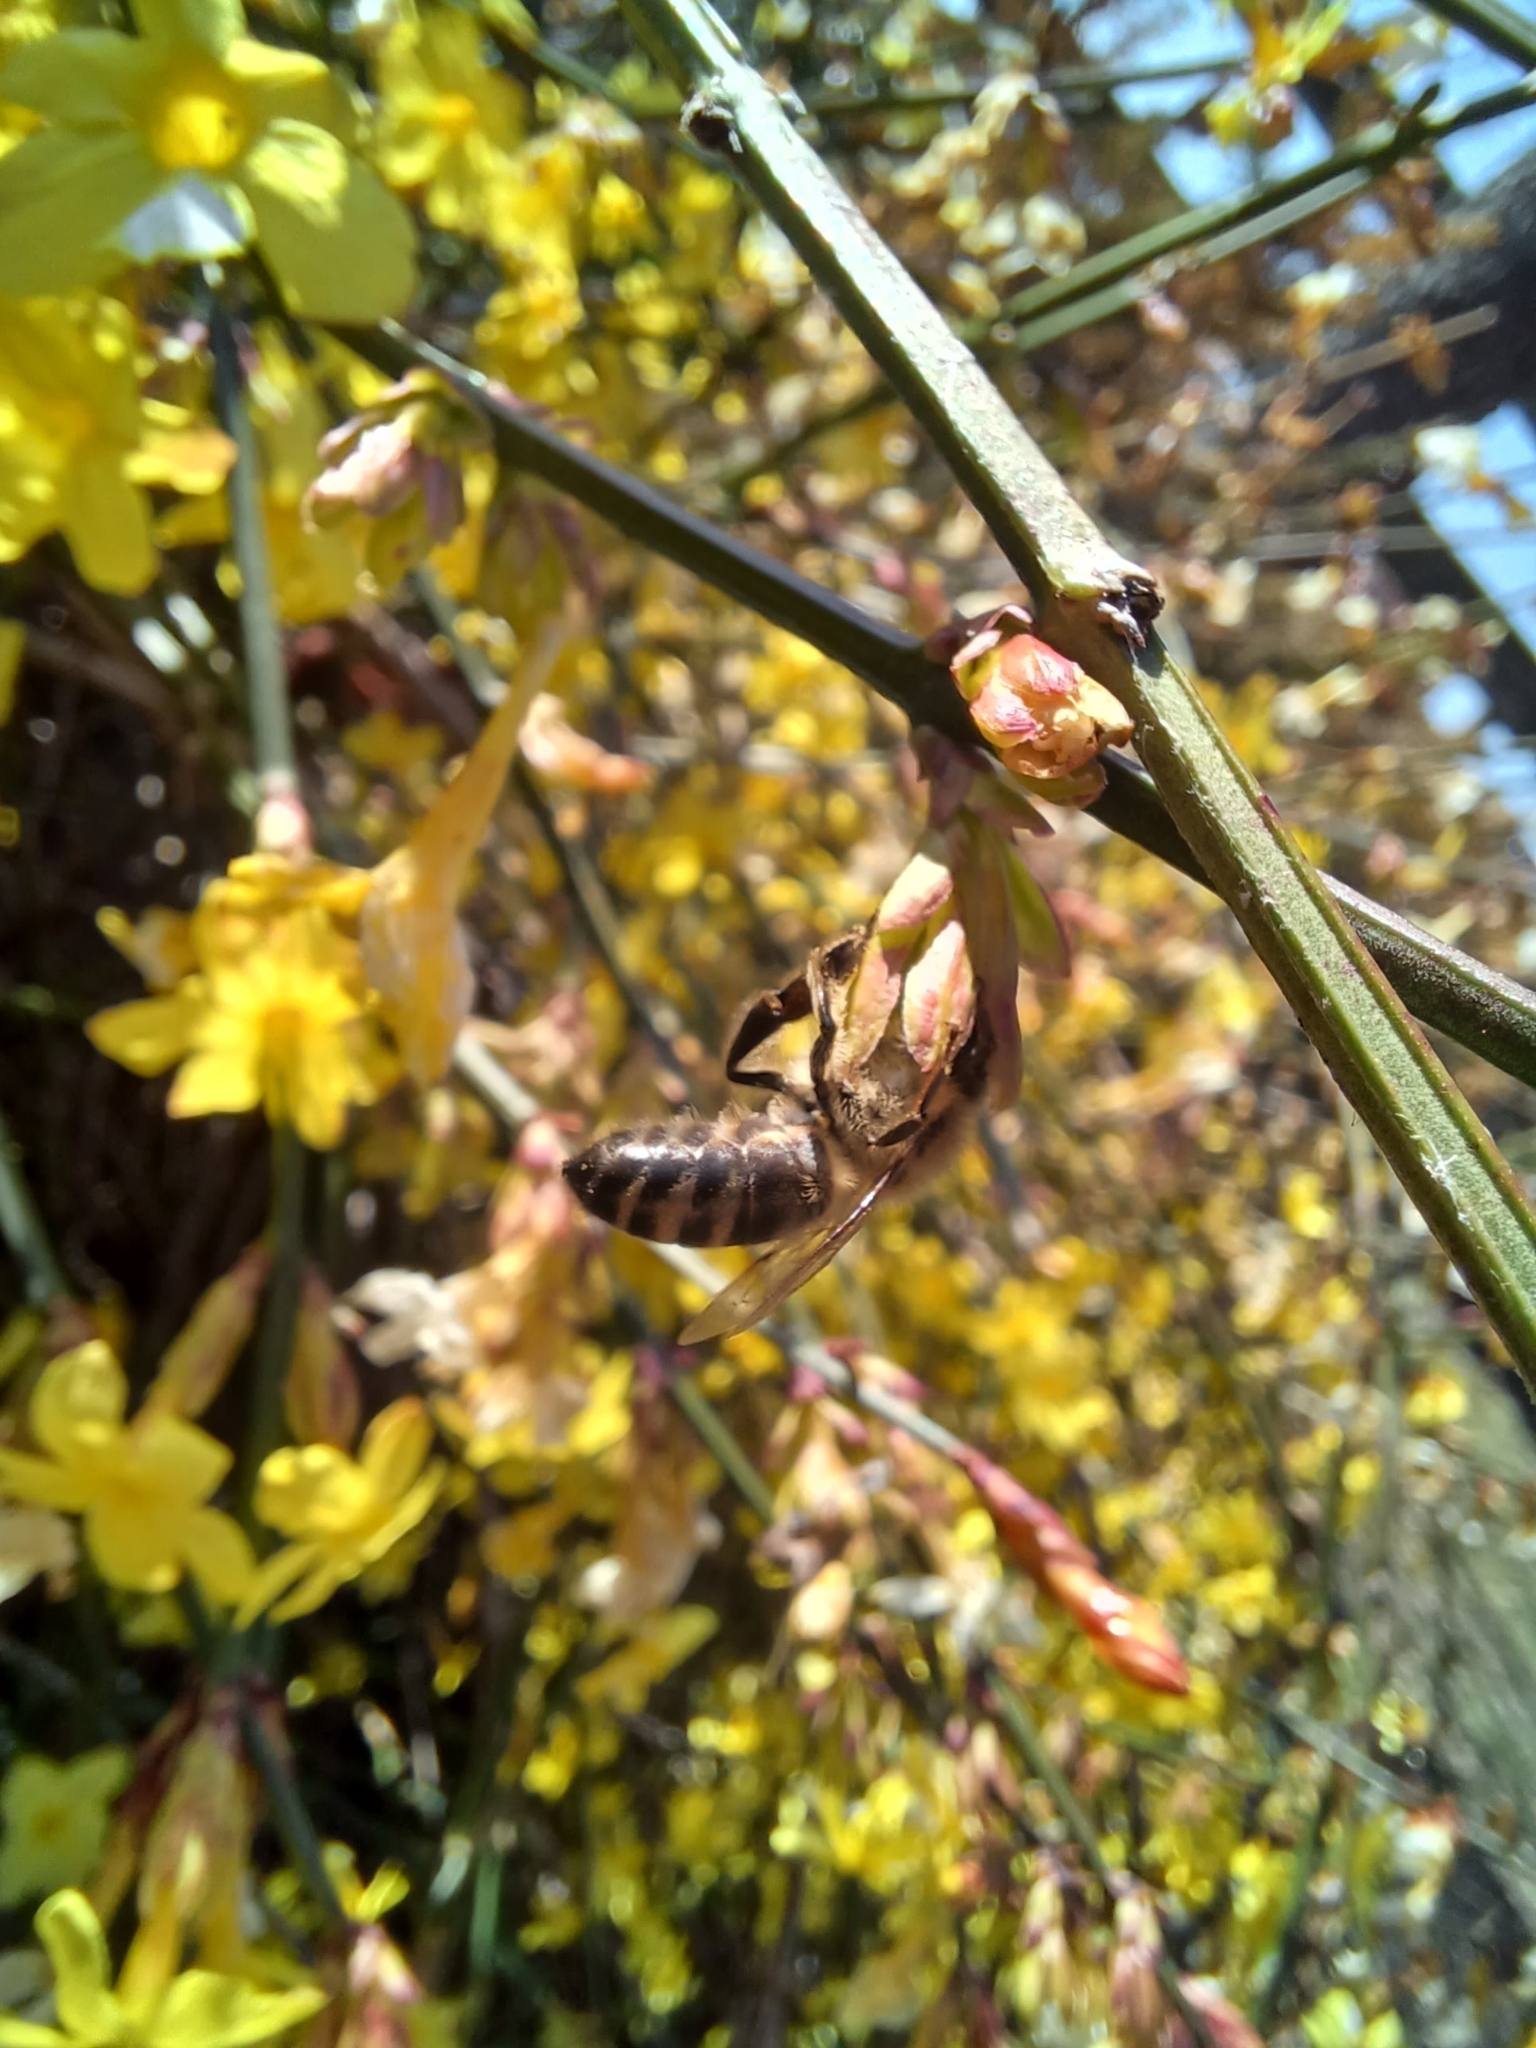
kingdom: Animalia
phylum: Arthropoda
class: Insecta
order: Hymenoptera
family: Apidae
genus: Apis
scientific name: Apis mellifera
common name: Honey bee
